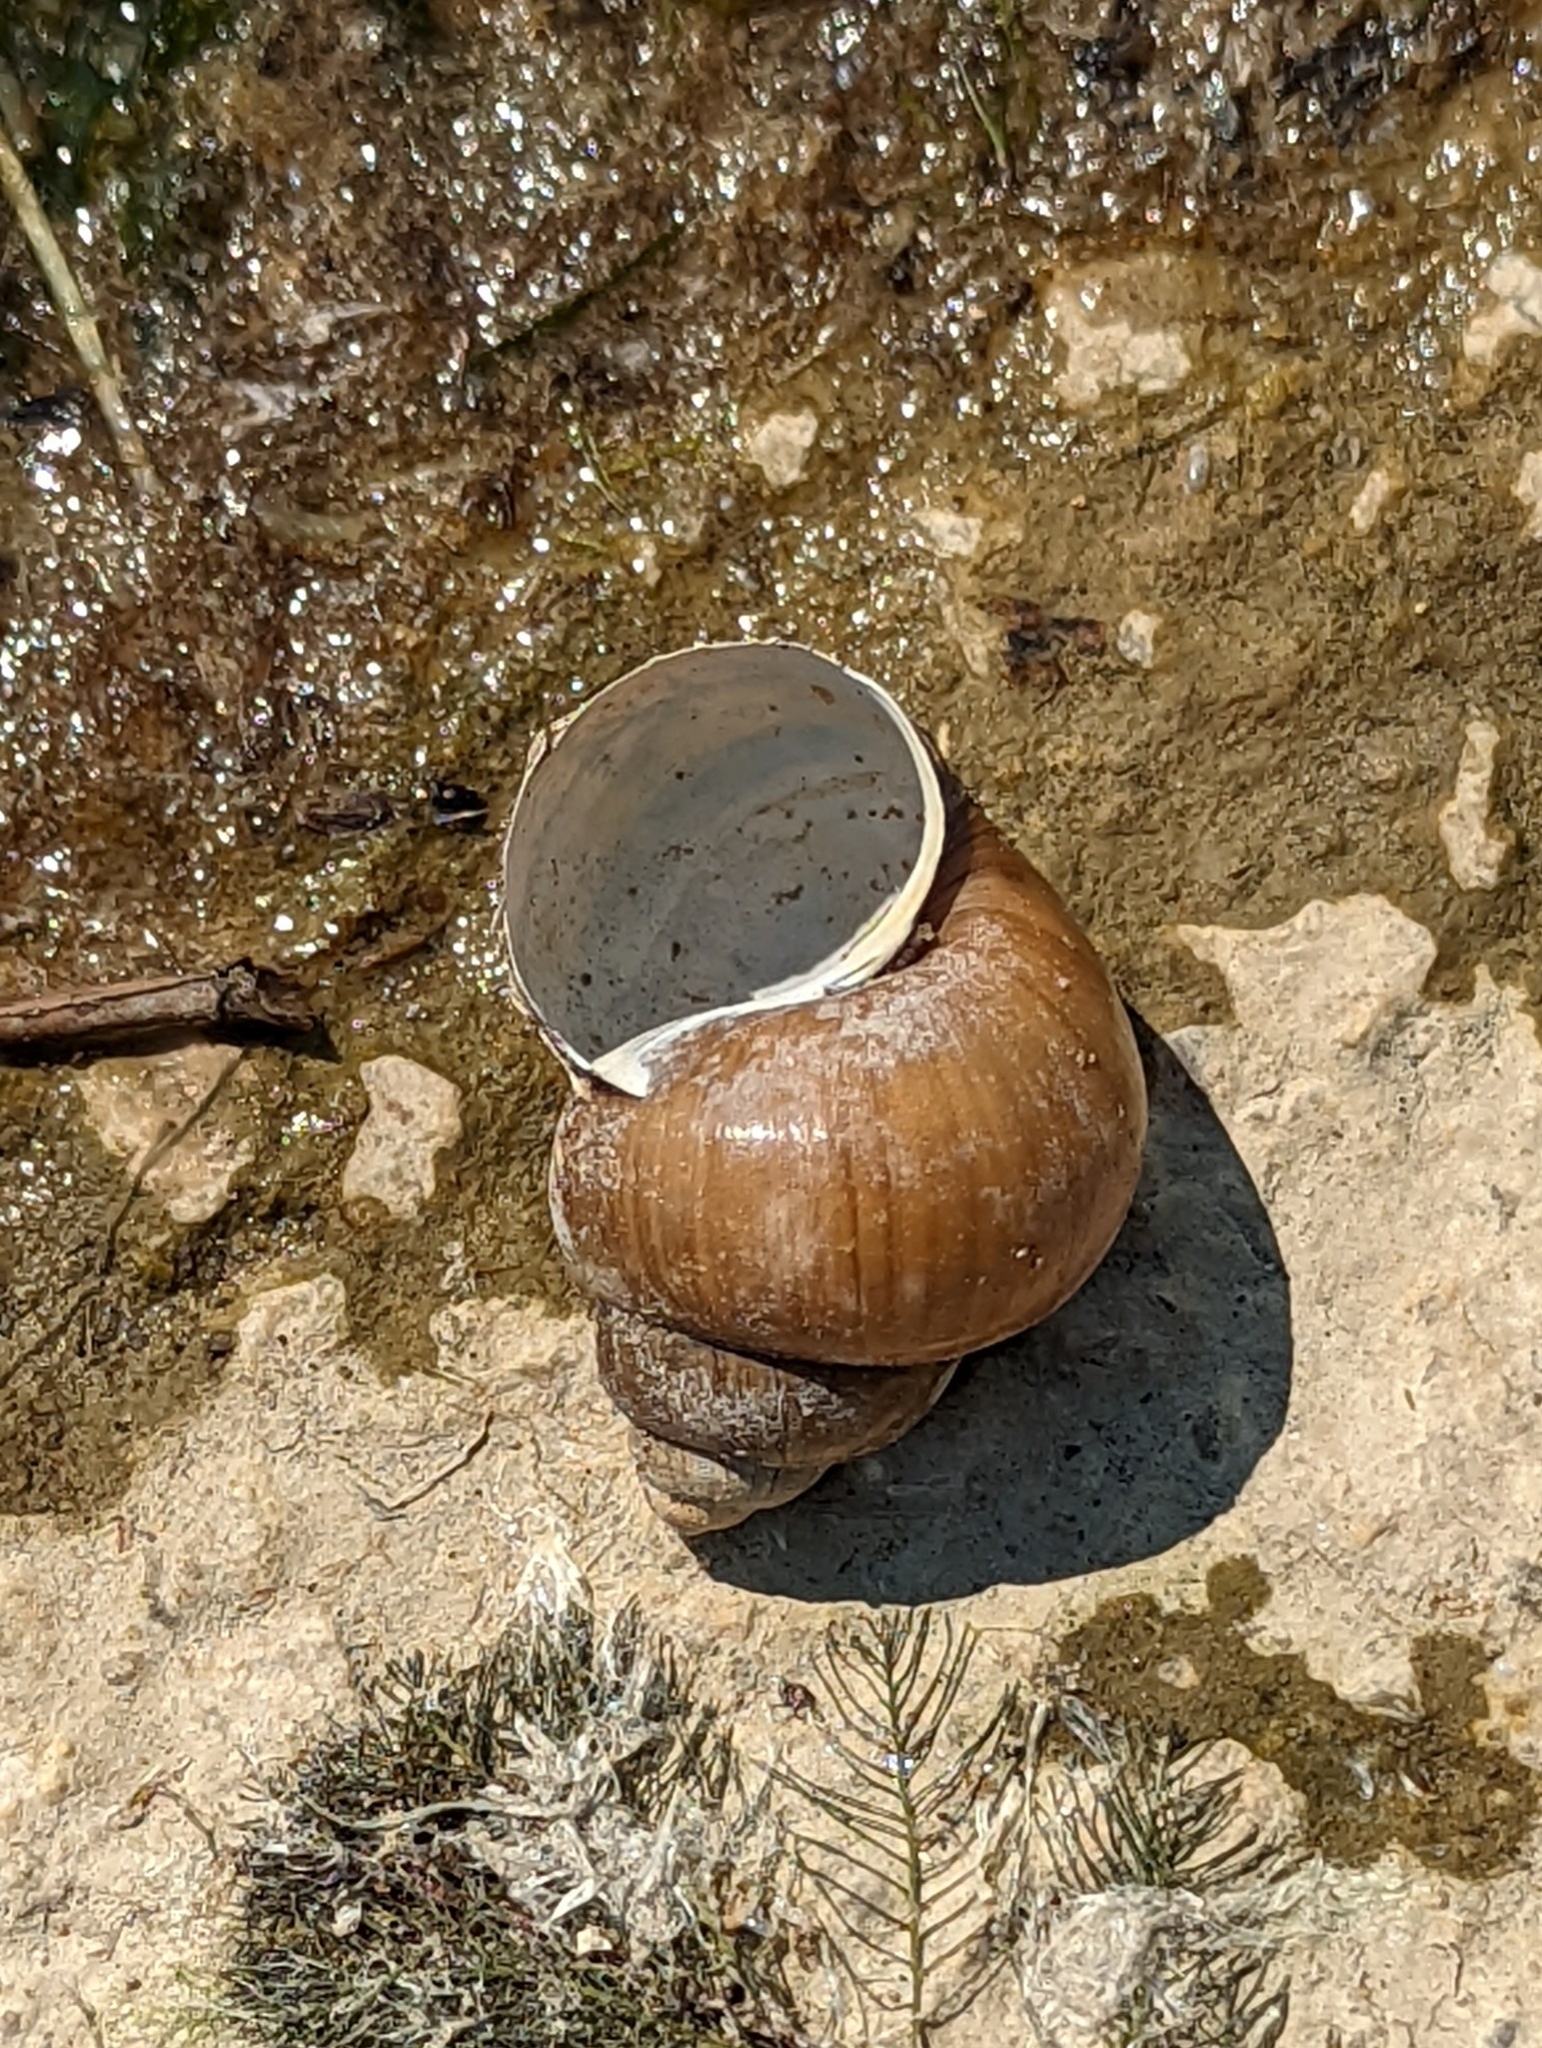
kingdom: Animalia
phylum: Mollusca
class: Gastropoda
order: Architaenioglossa
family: Viviparidae
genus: Cipangopaludina
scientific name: Cipangopaludina chinensis
